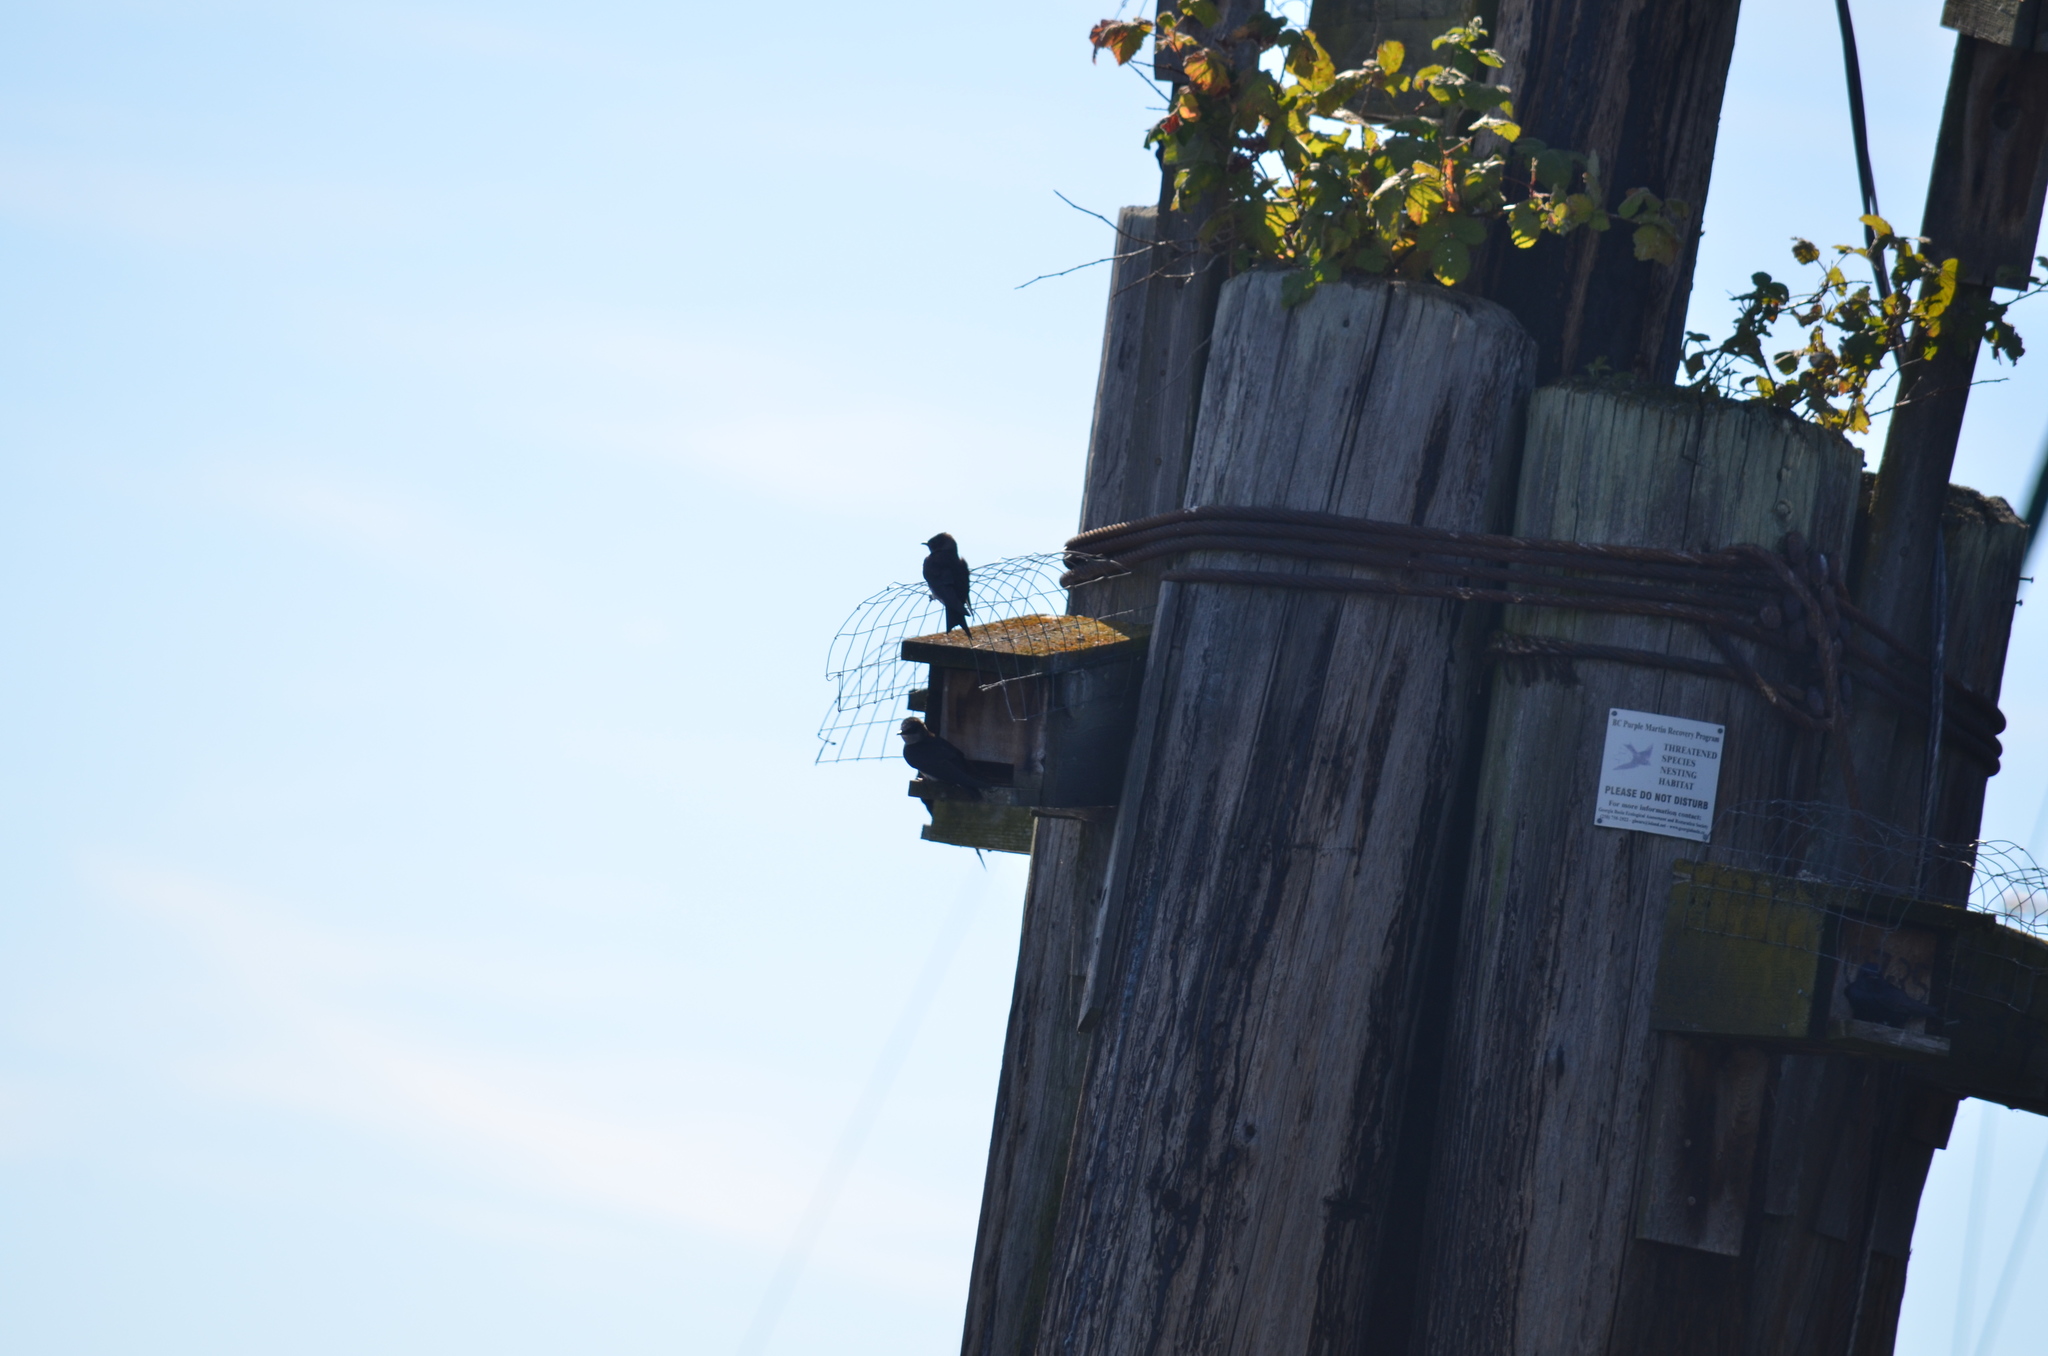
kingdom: Animalia
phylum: Chordata
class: Aves
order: Passeriformes
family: Hirundinidae
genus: Progne
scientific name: Progne subis
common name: Purple martin
